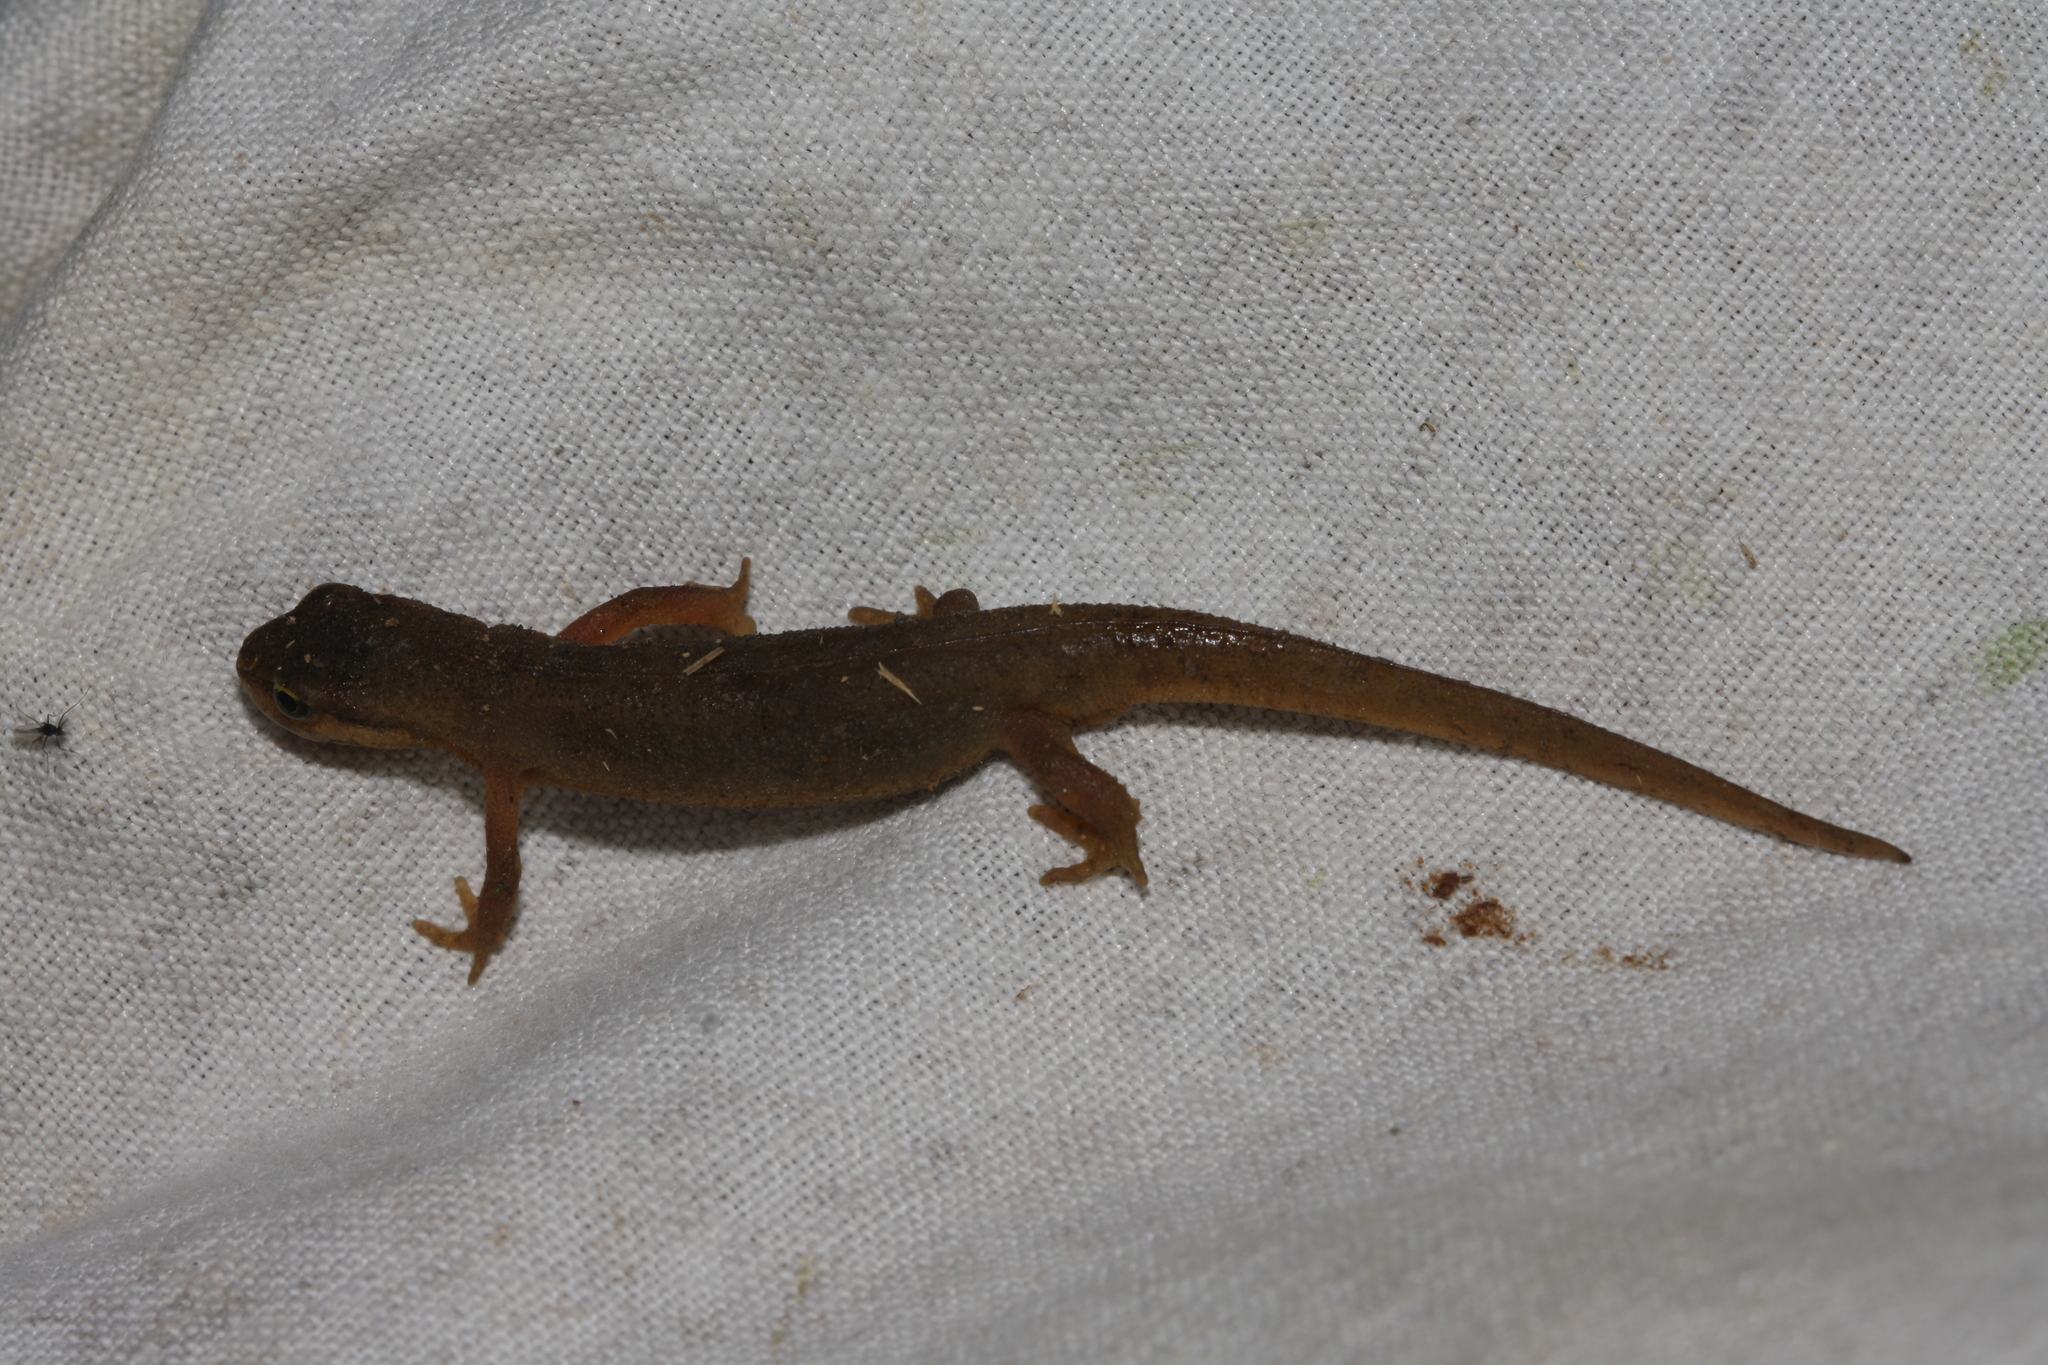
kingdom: Animalia
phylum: Chordata
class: Amphibia
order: Caudata
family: Salamandridae
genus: Lissotriton
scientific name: Lissotriton vulgaris
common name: Smooth newt
